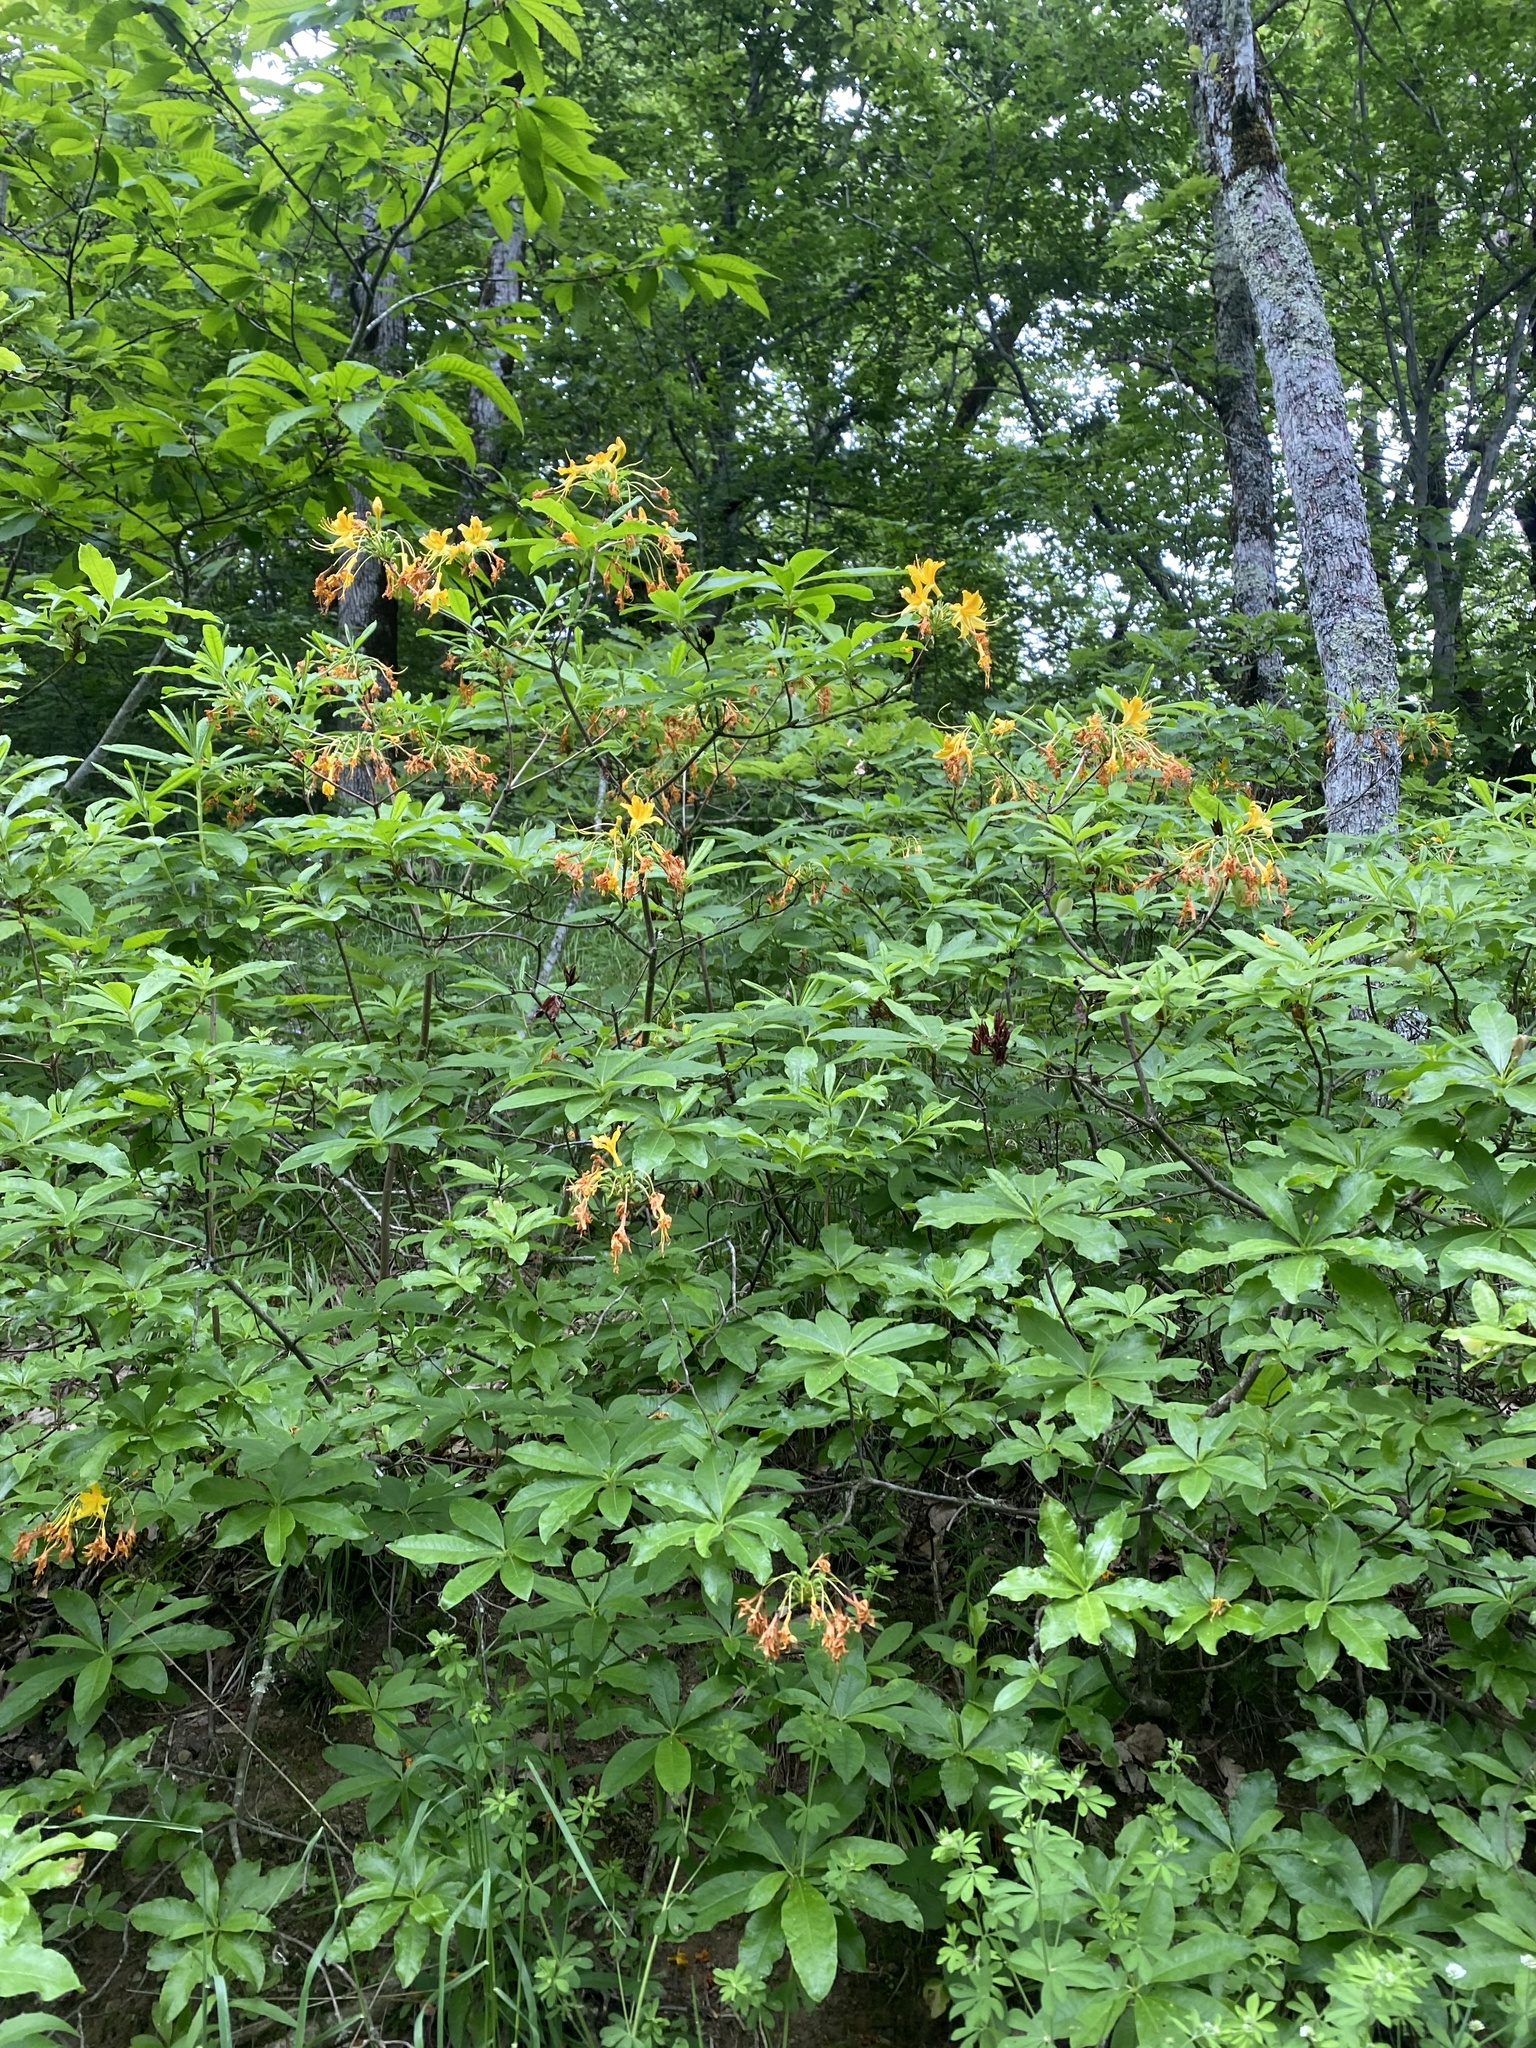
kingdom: Plantae
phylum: Tracheophyta
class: Magnoliopsida
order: Ericales
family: Ericaceae
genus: Rhododendron
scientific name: Rhododendron luteum
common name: Yellow azalea
